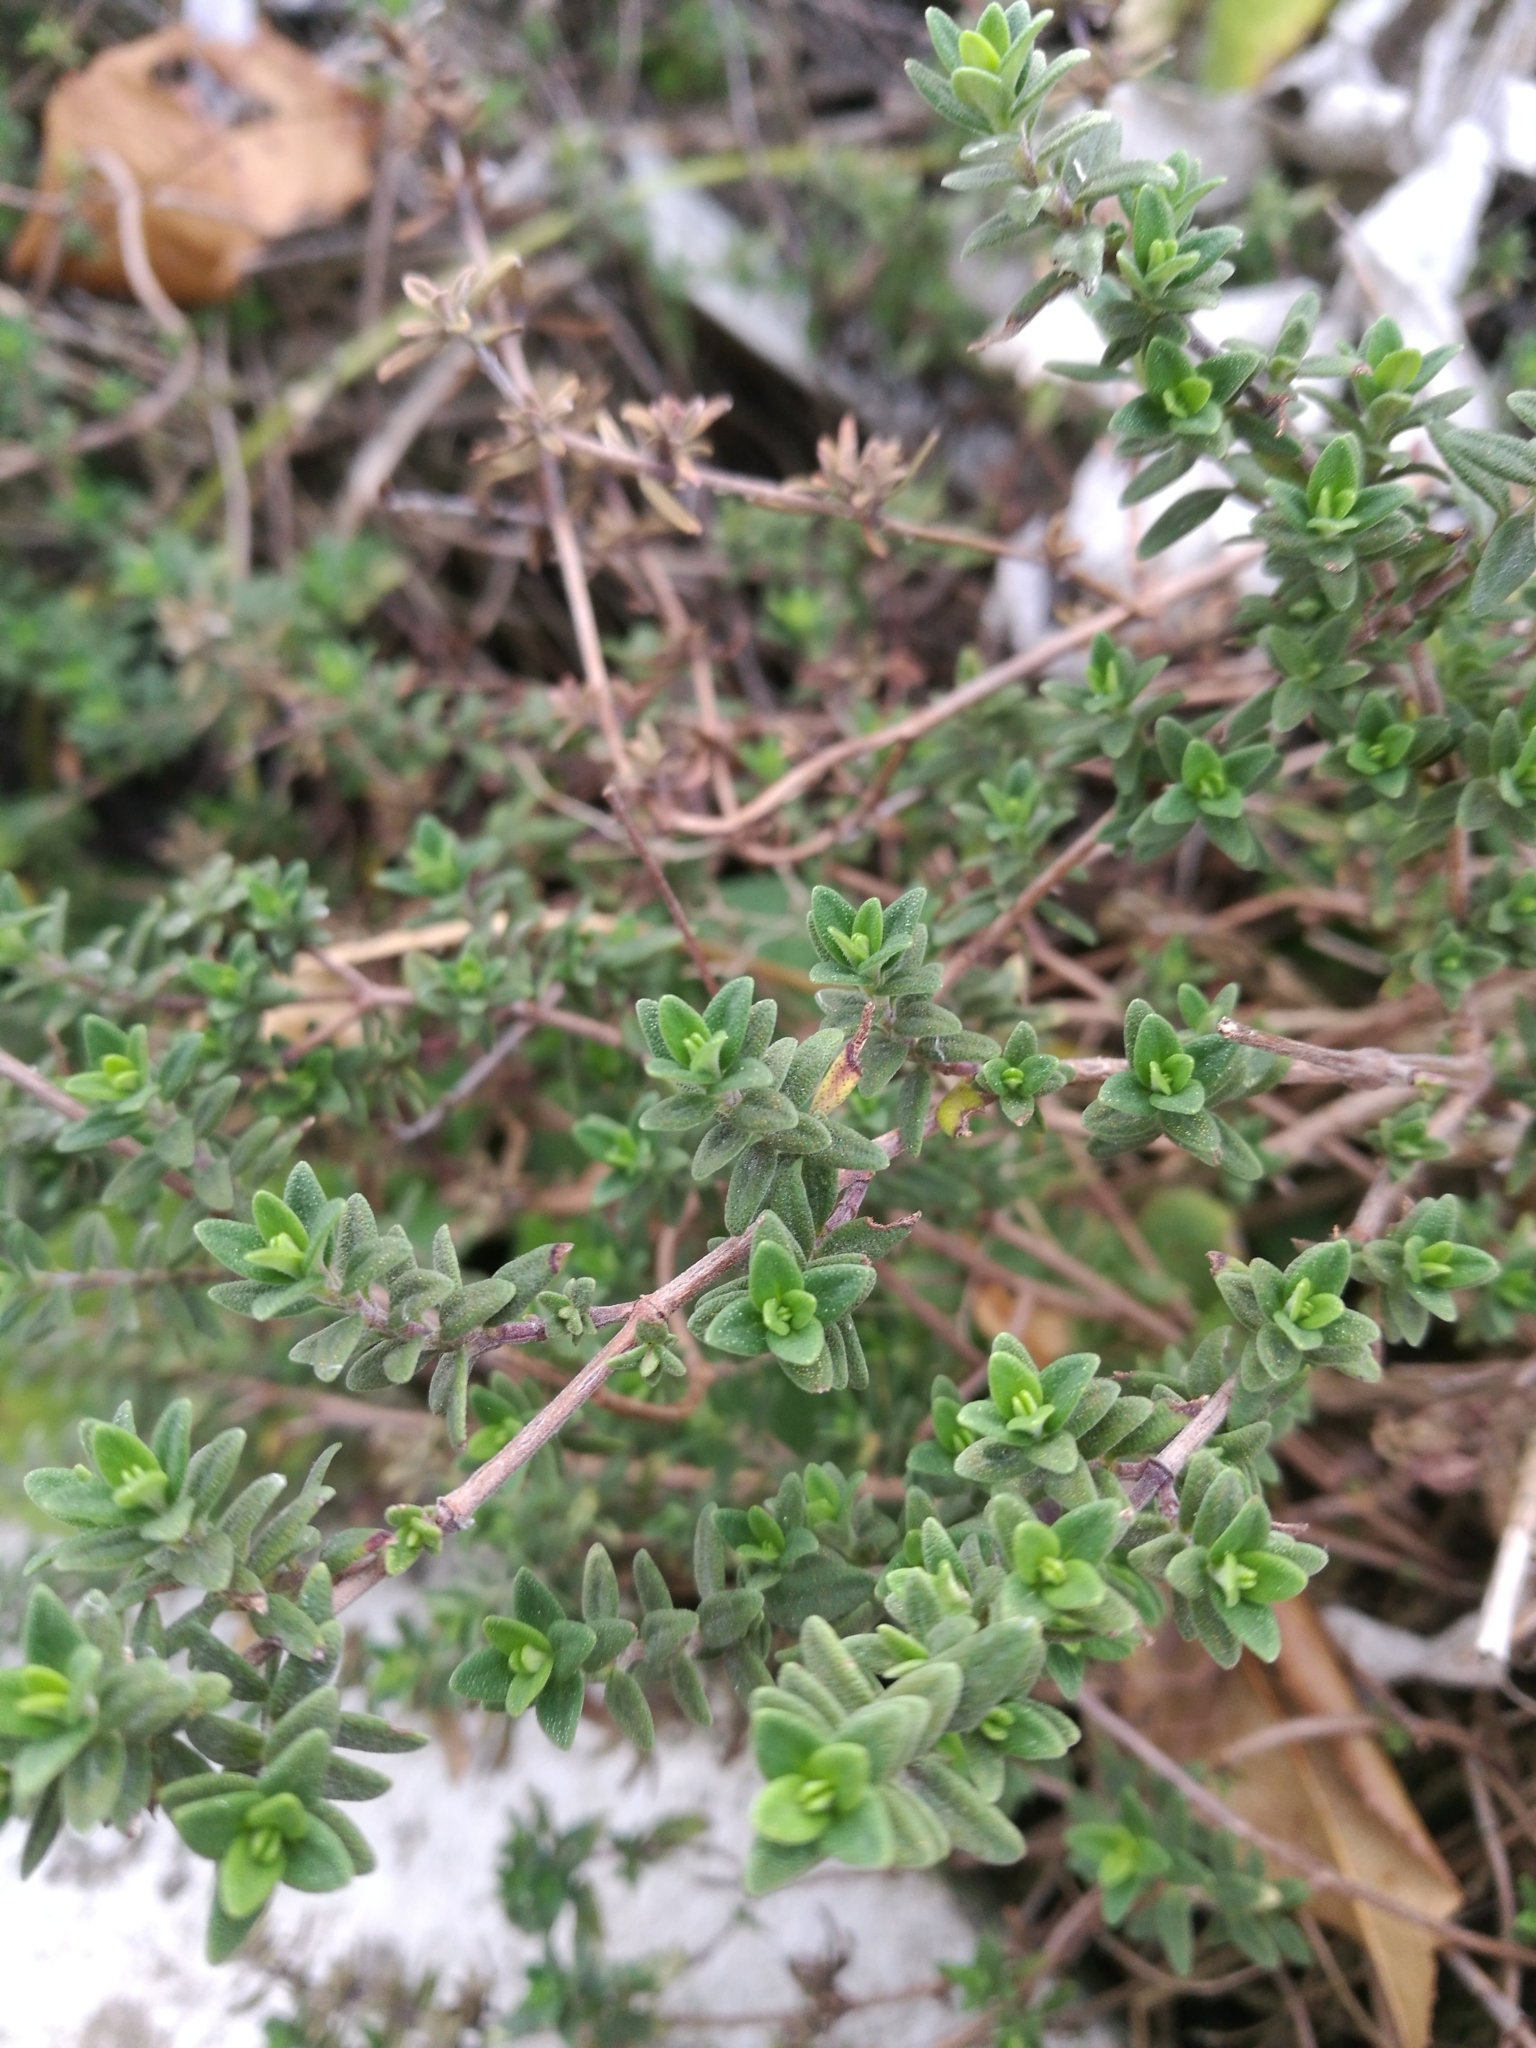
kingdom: Plantae
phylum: Tracheophyta
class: Magnoliopsida
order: Lamiales
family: Lamiaceae
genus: Thymus
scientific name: Thymus vulgaris
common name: Garden thyme
